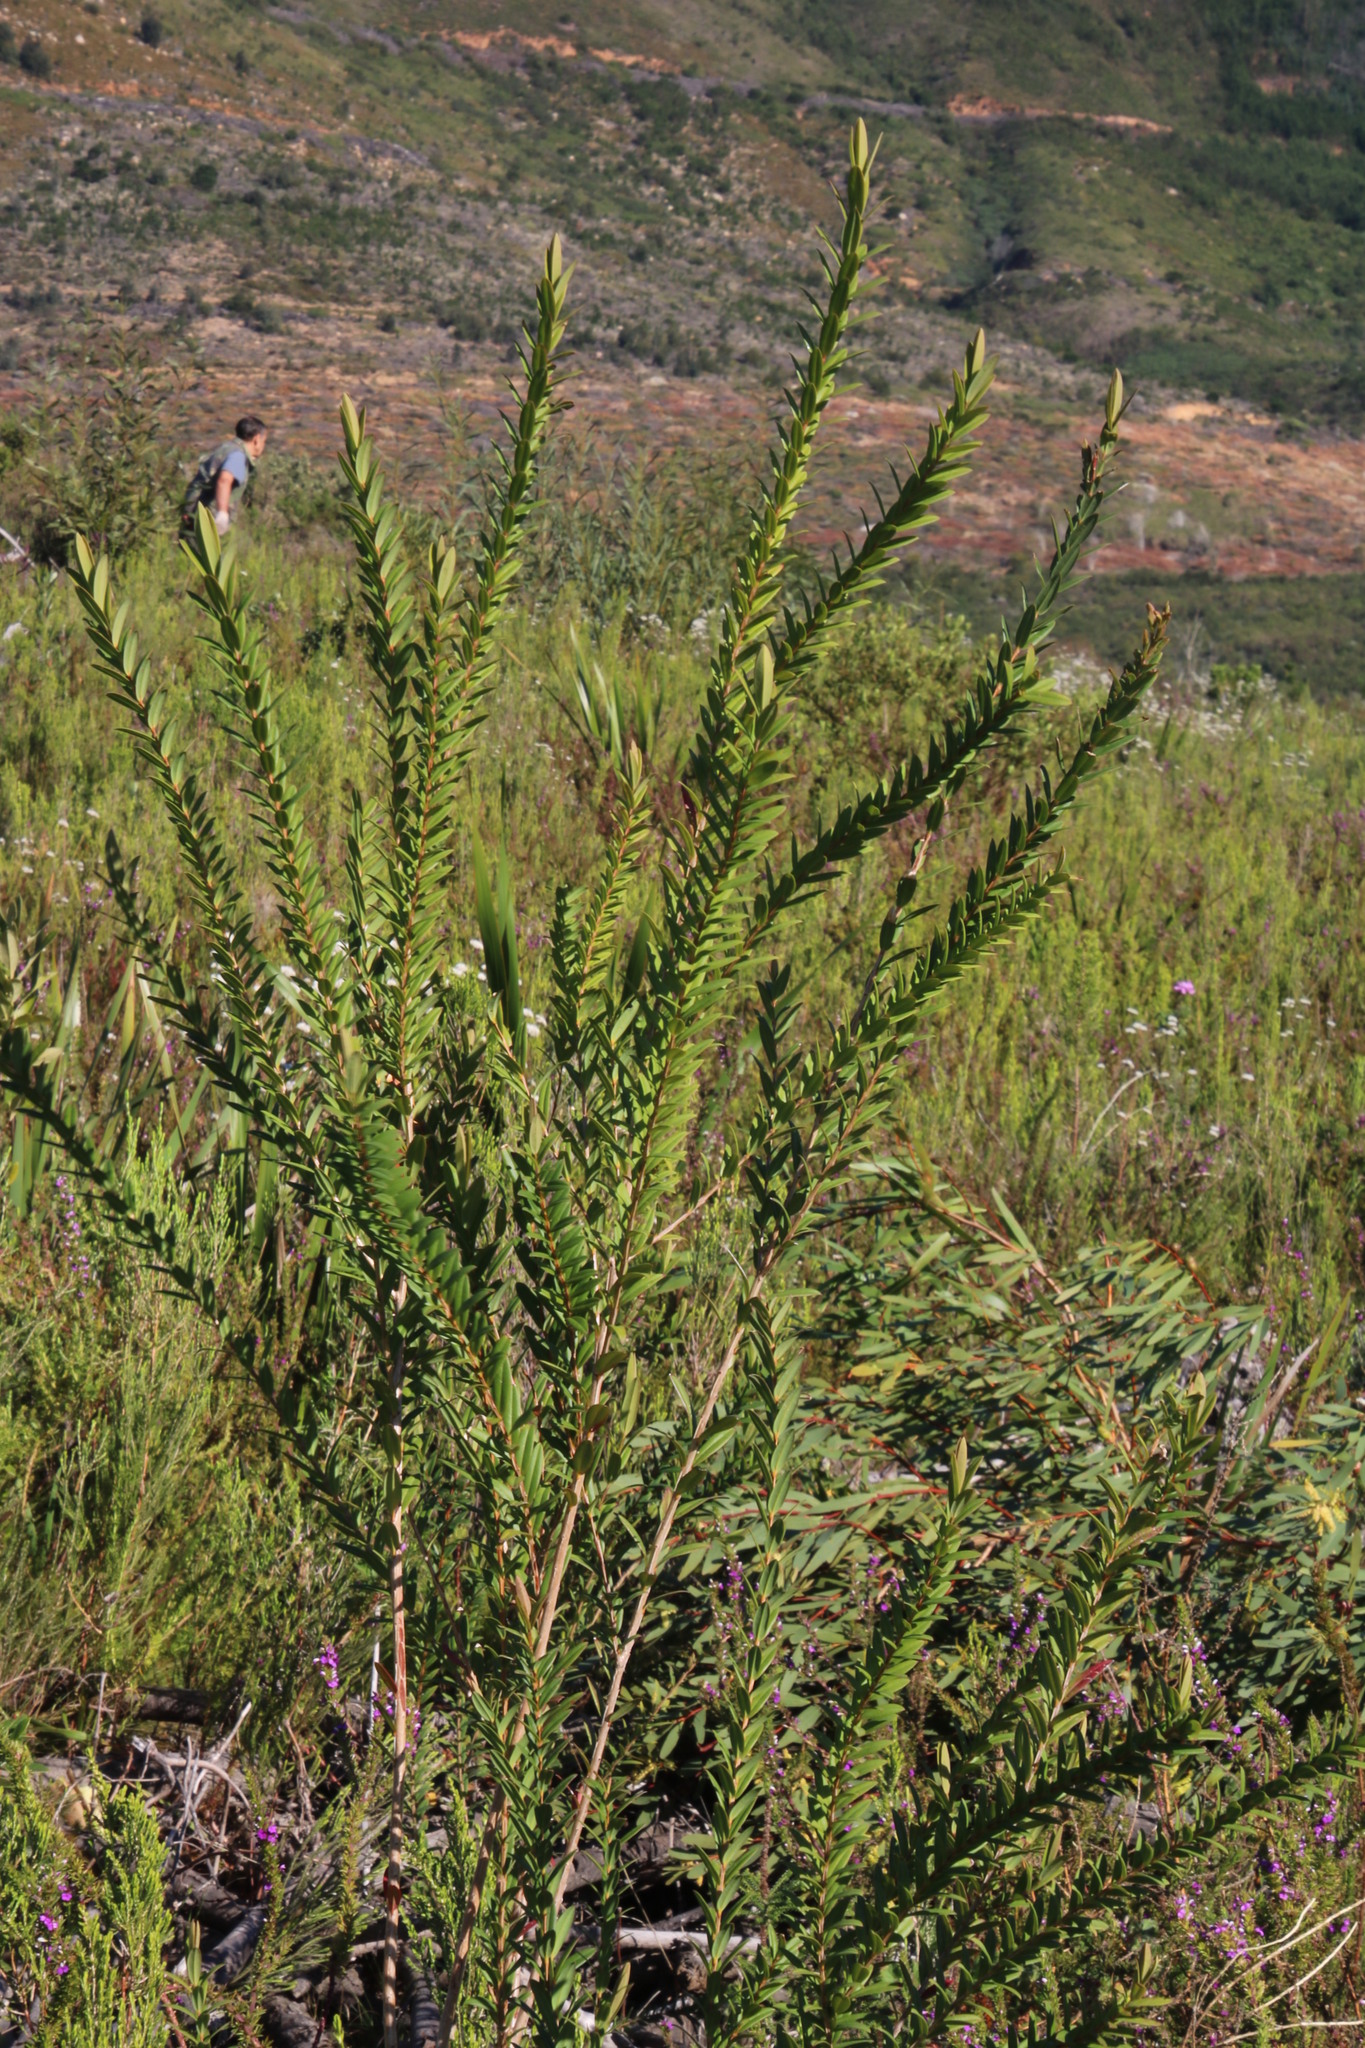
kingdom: Plantae
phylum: Tracheophyta
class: Magnoliopsida
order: Myrtales
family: Myrtaceae
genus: Melaleuca
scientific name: Melaleuca hypericifolia
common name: Red honey myrtle
